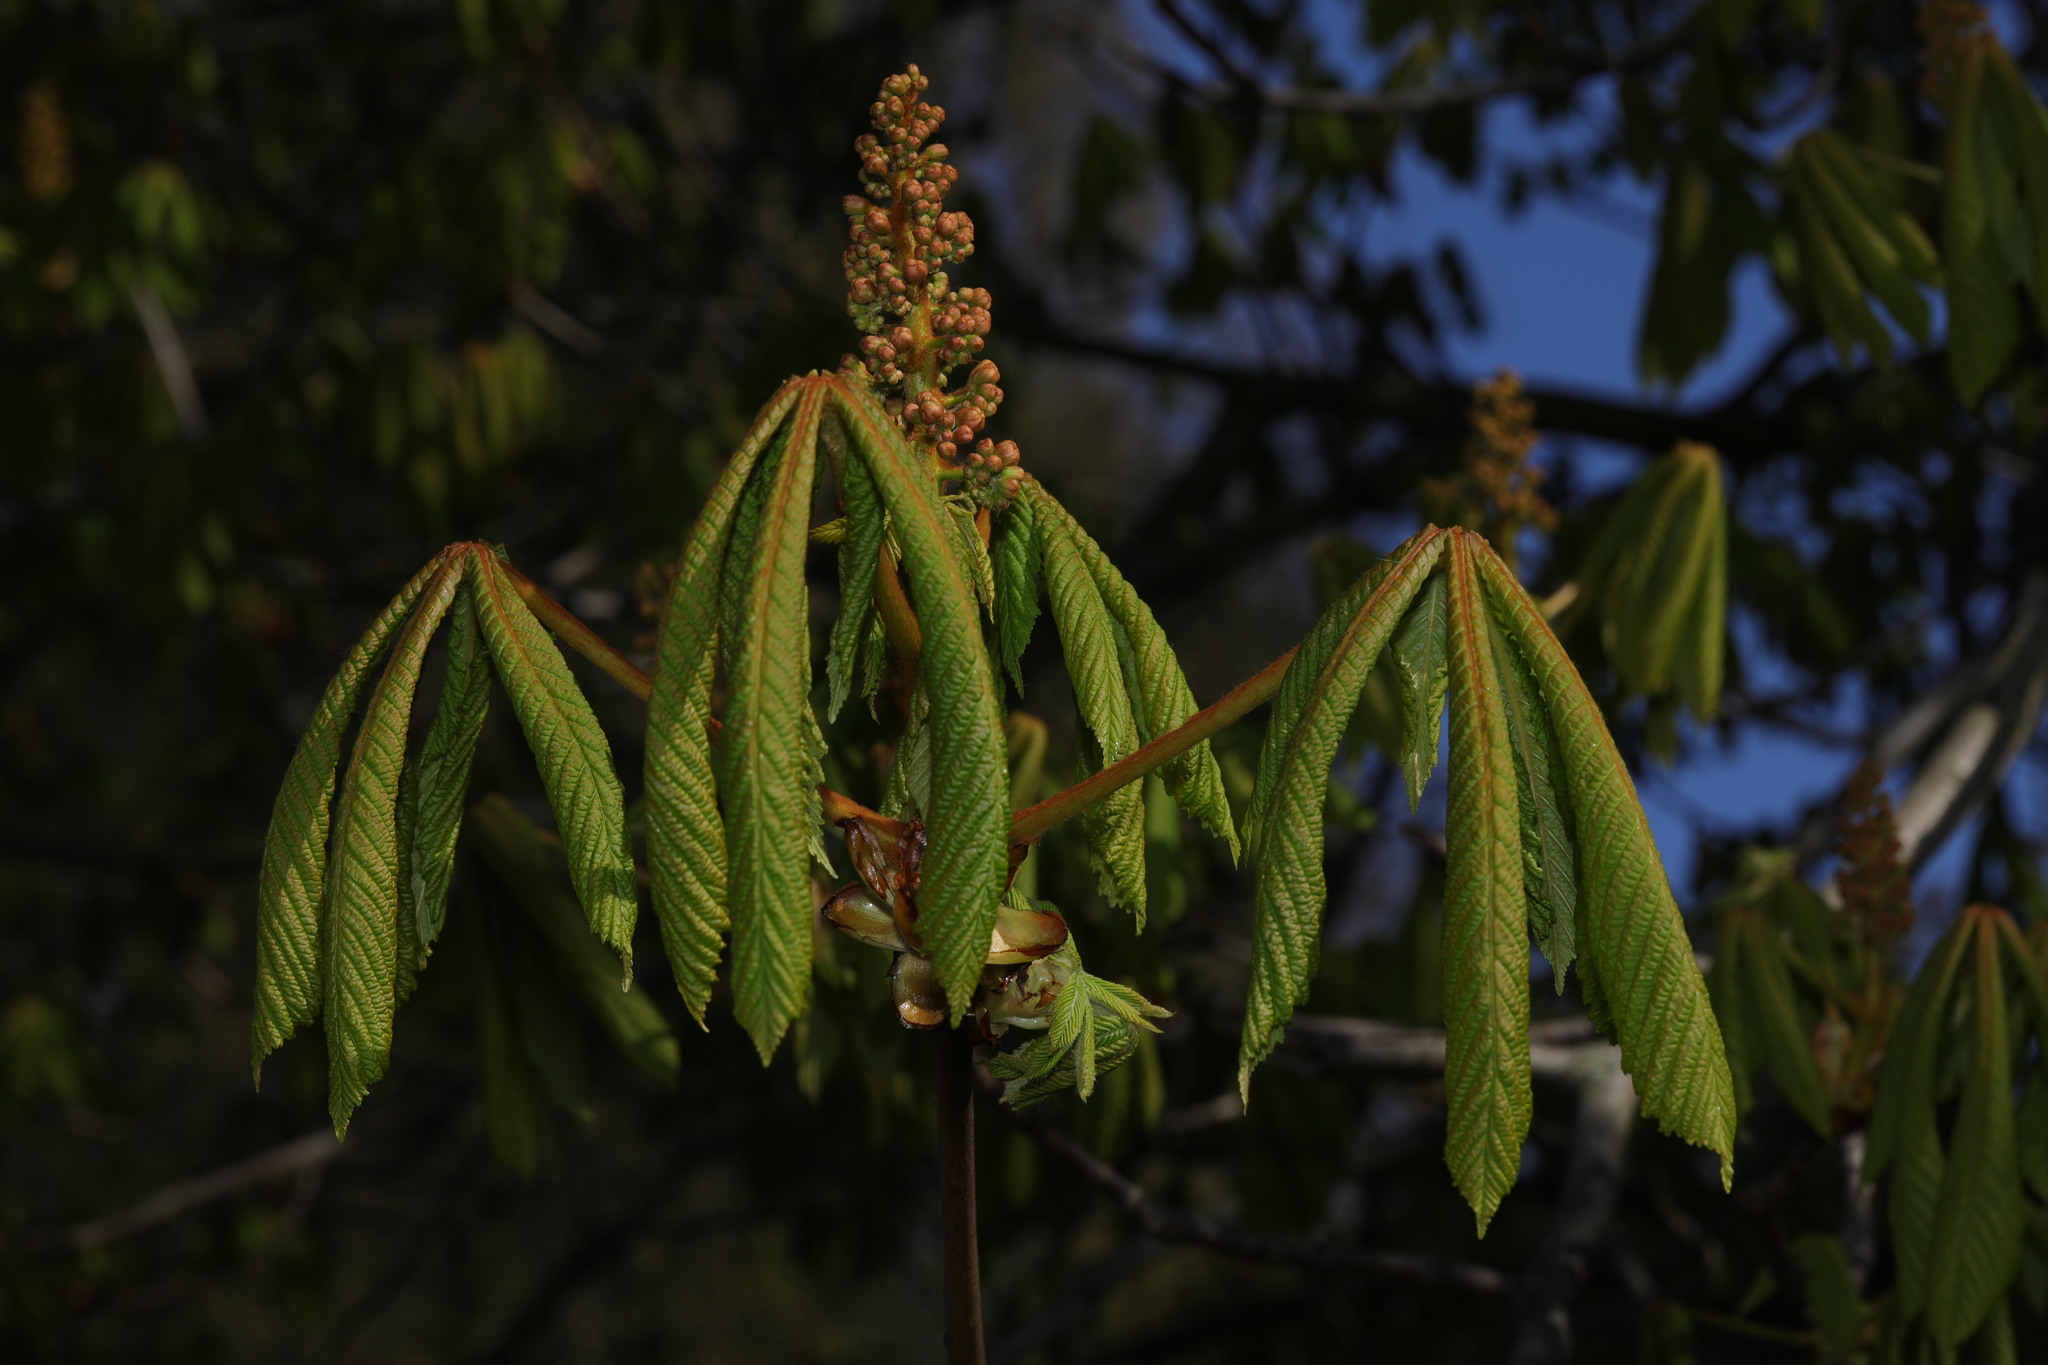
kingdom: Plantae
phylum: Tracheophyta
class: Magnoliopsida
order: Sapindales
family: Sapindaceae
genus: Aesculus
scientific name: Aesculus hippocastanum
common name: Horse-chestnut
